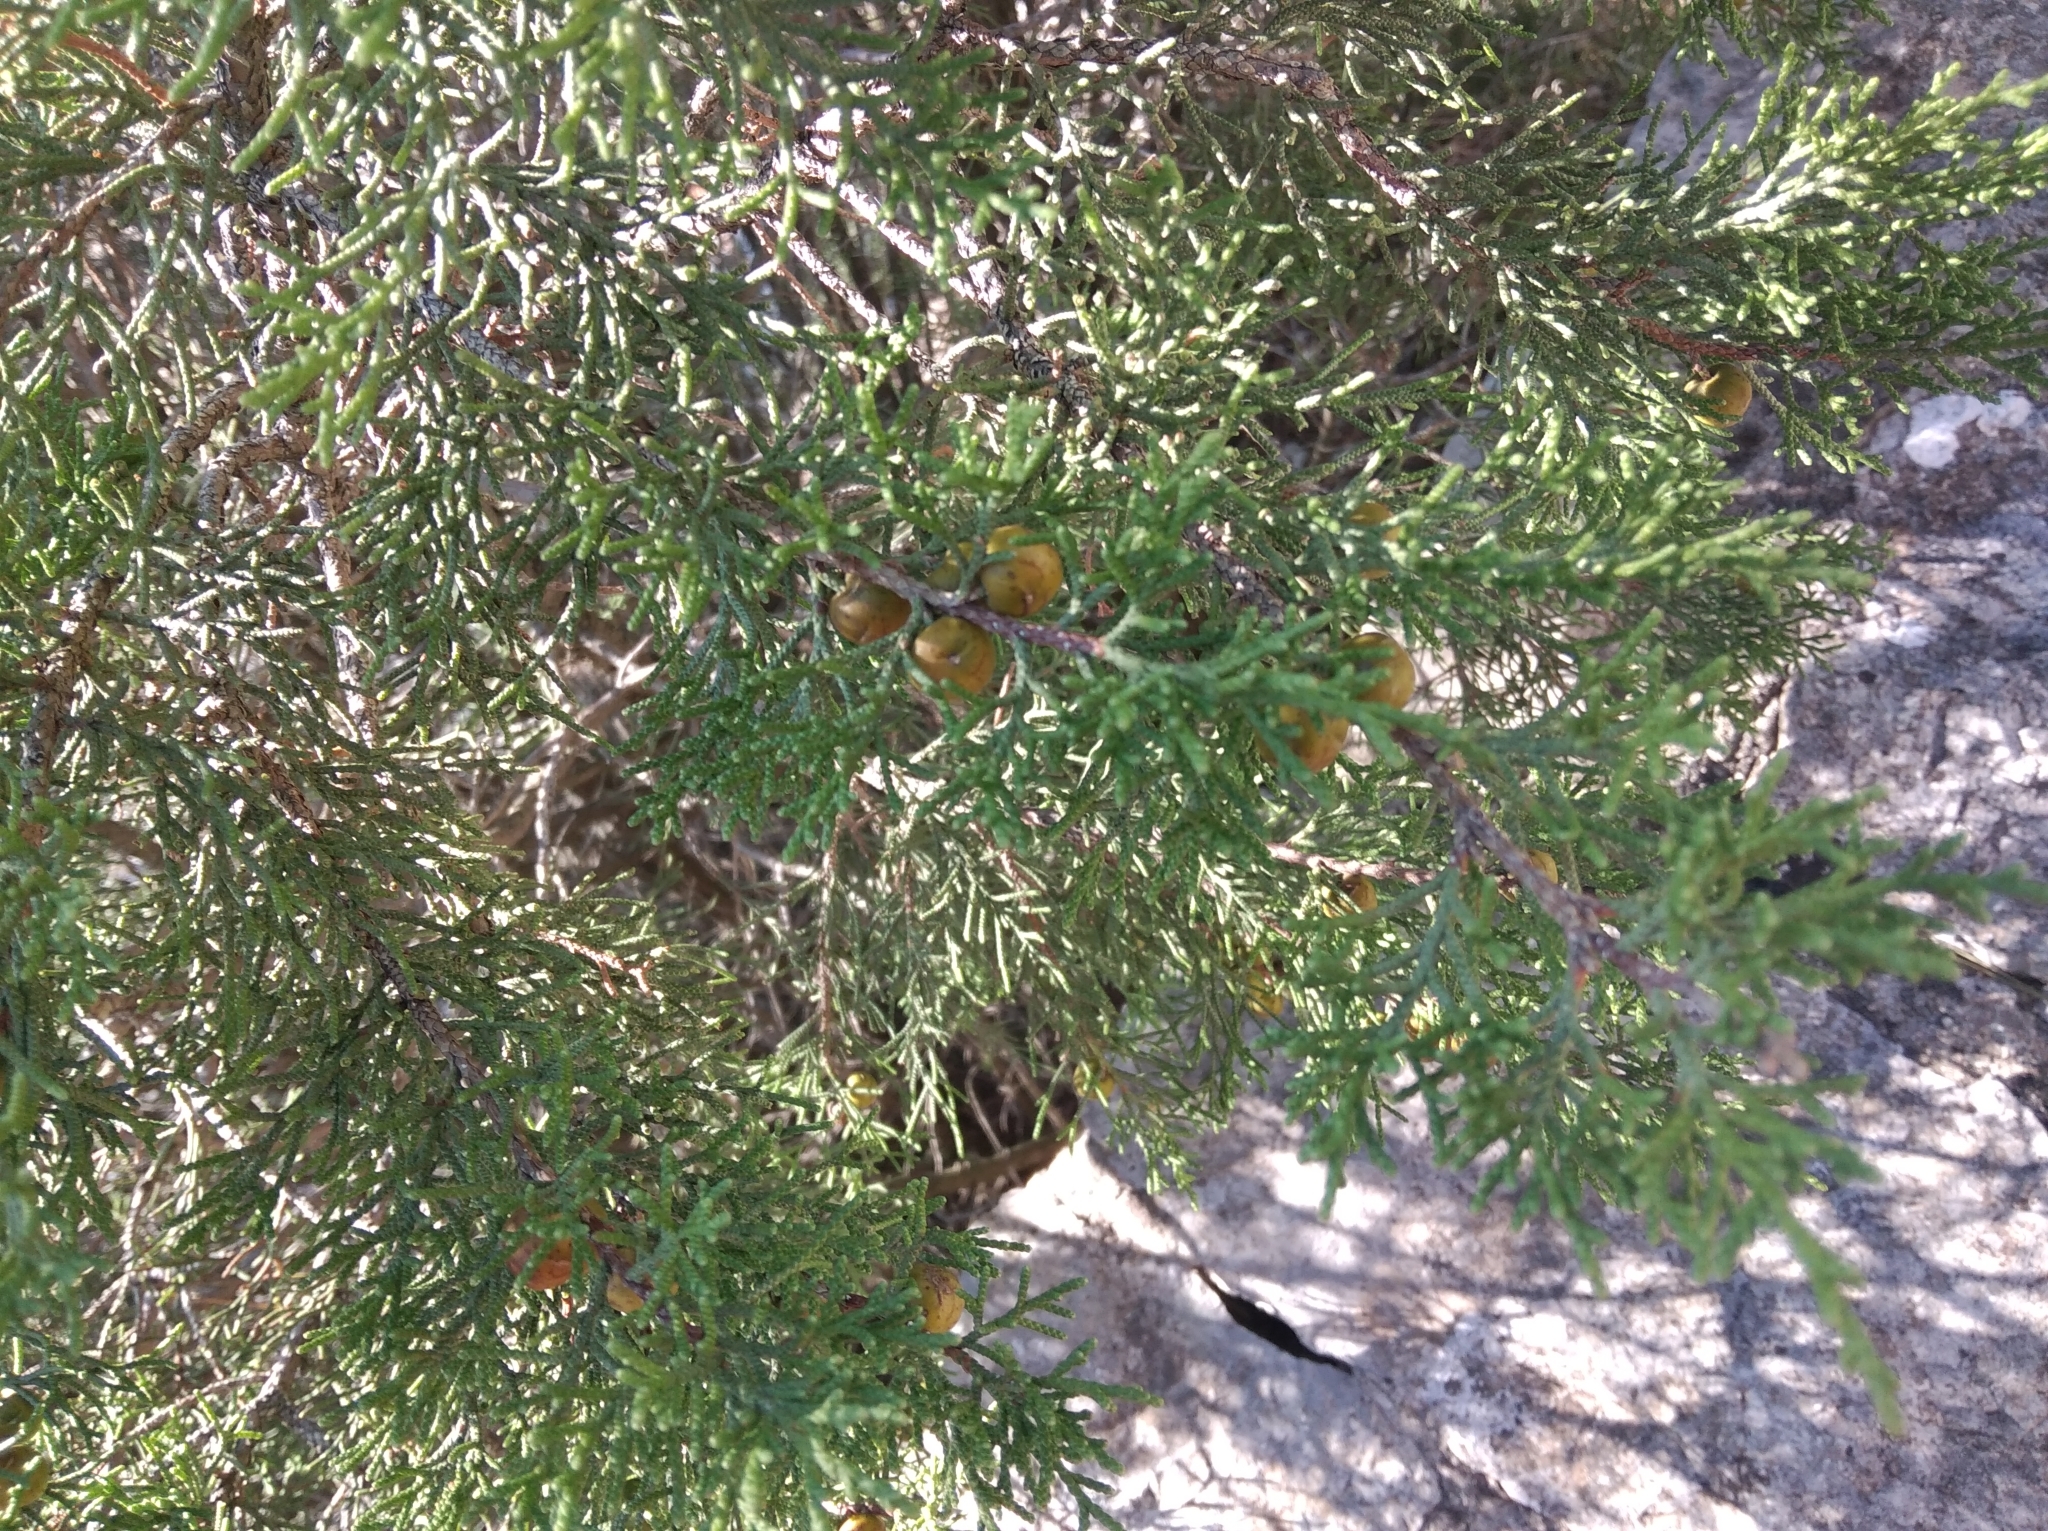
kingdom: Plantae
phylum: Tracheophyta
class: Pinopsida
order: Pinales
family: Cupressaceae
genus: Juniperus
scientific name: Juniperus phoenicea
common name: Phoenician juniper
